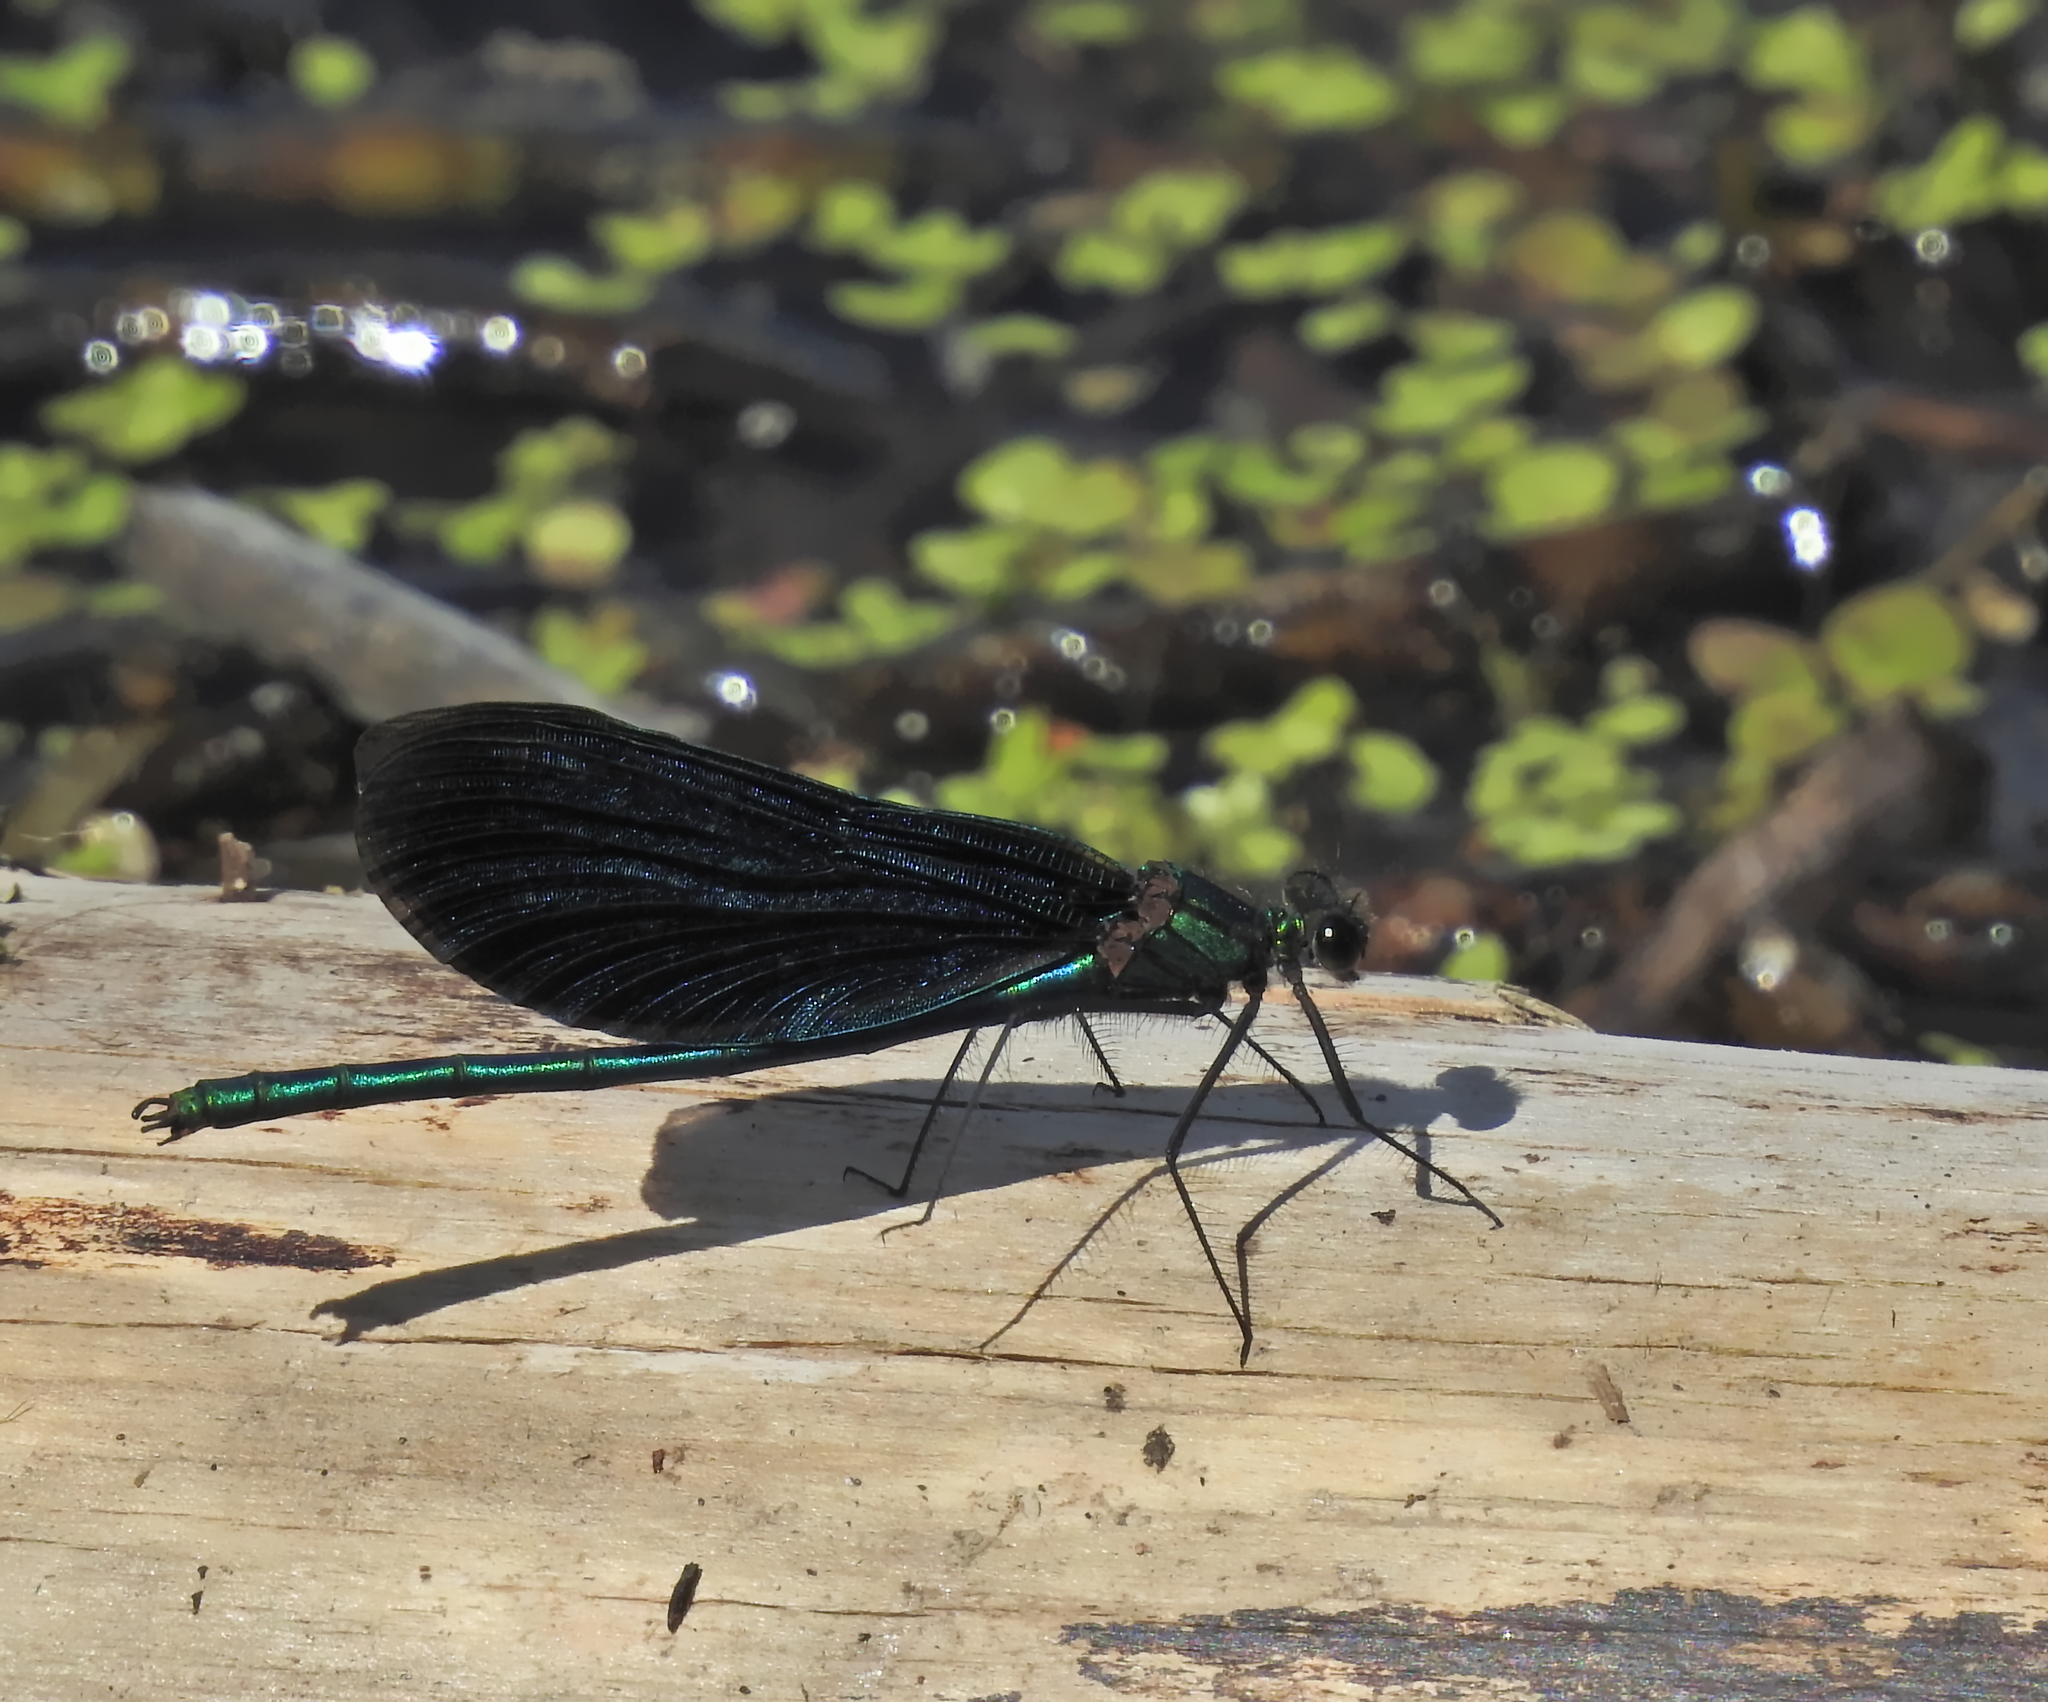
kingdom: Animalia
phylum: Arthropoda
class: Insecta
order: Odonata
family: Calopterygidae
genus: Calopteryx
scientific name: Calopteryx virgo
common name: Beautiful demoiselle
